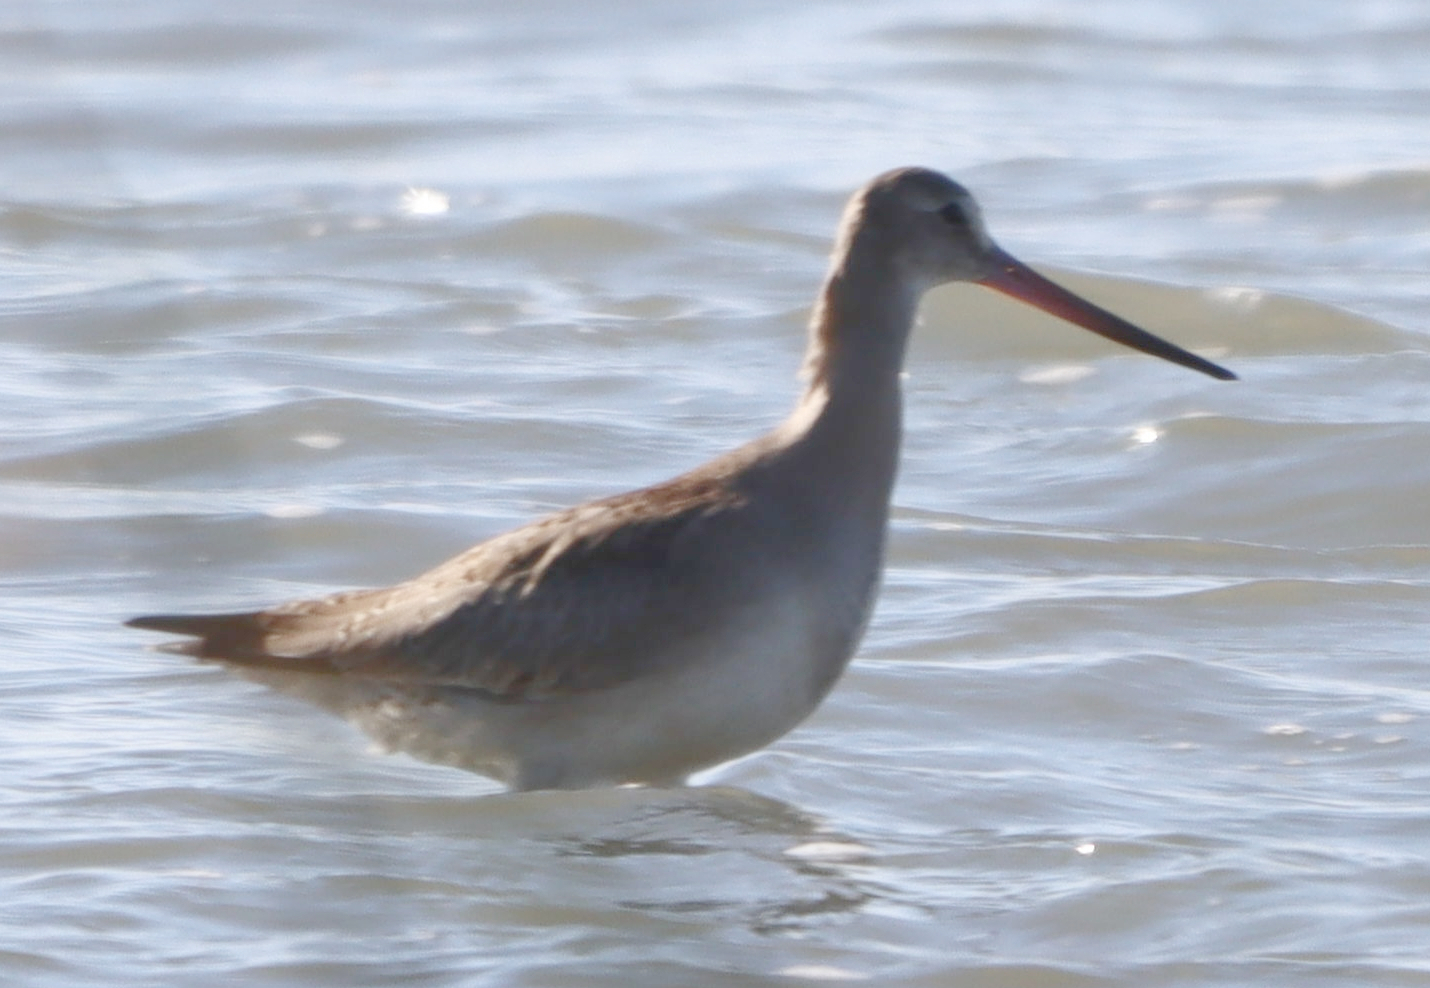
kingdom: Animalia
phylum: Chordata
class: Aves
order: Charadriiformes
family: Scolopacidae
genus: Limosa
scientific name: Limosa haemastica
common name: Hudsonian godwit
